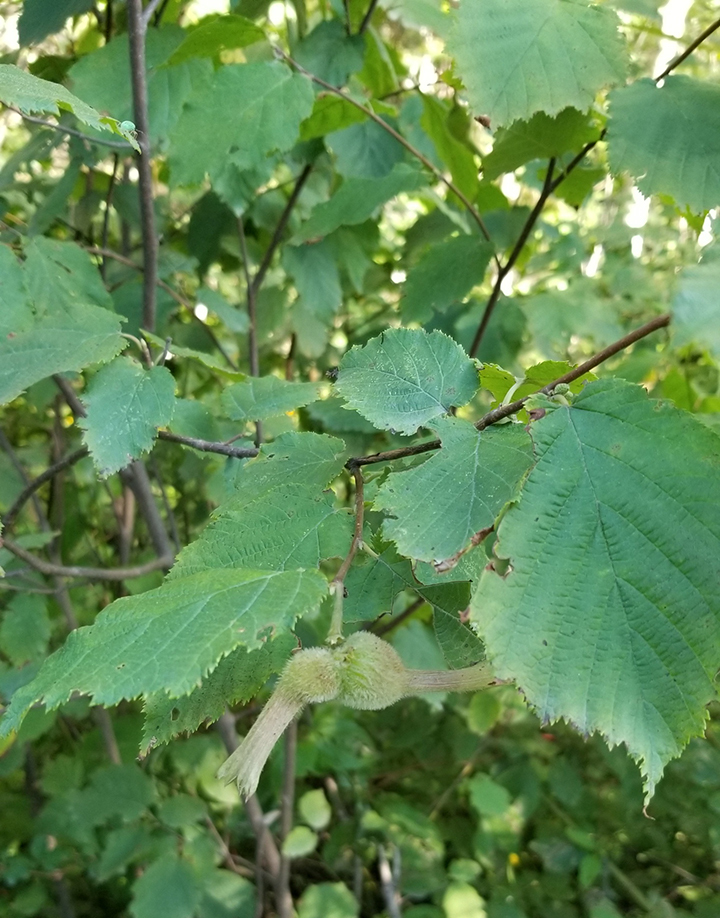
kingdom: Plantae
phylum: Tracheophyta
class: Magnoliopsida
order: Fagales
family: Betulaceae
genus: Corylus
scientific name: Corylus cornuta
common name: Beaked hazel
